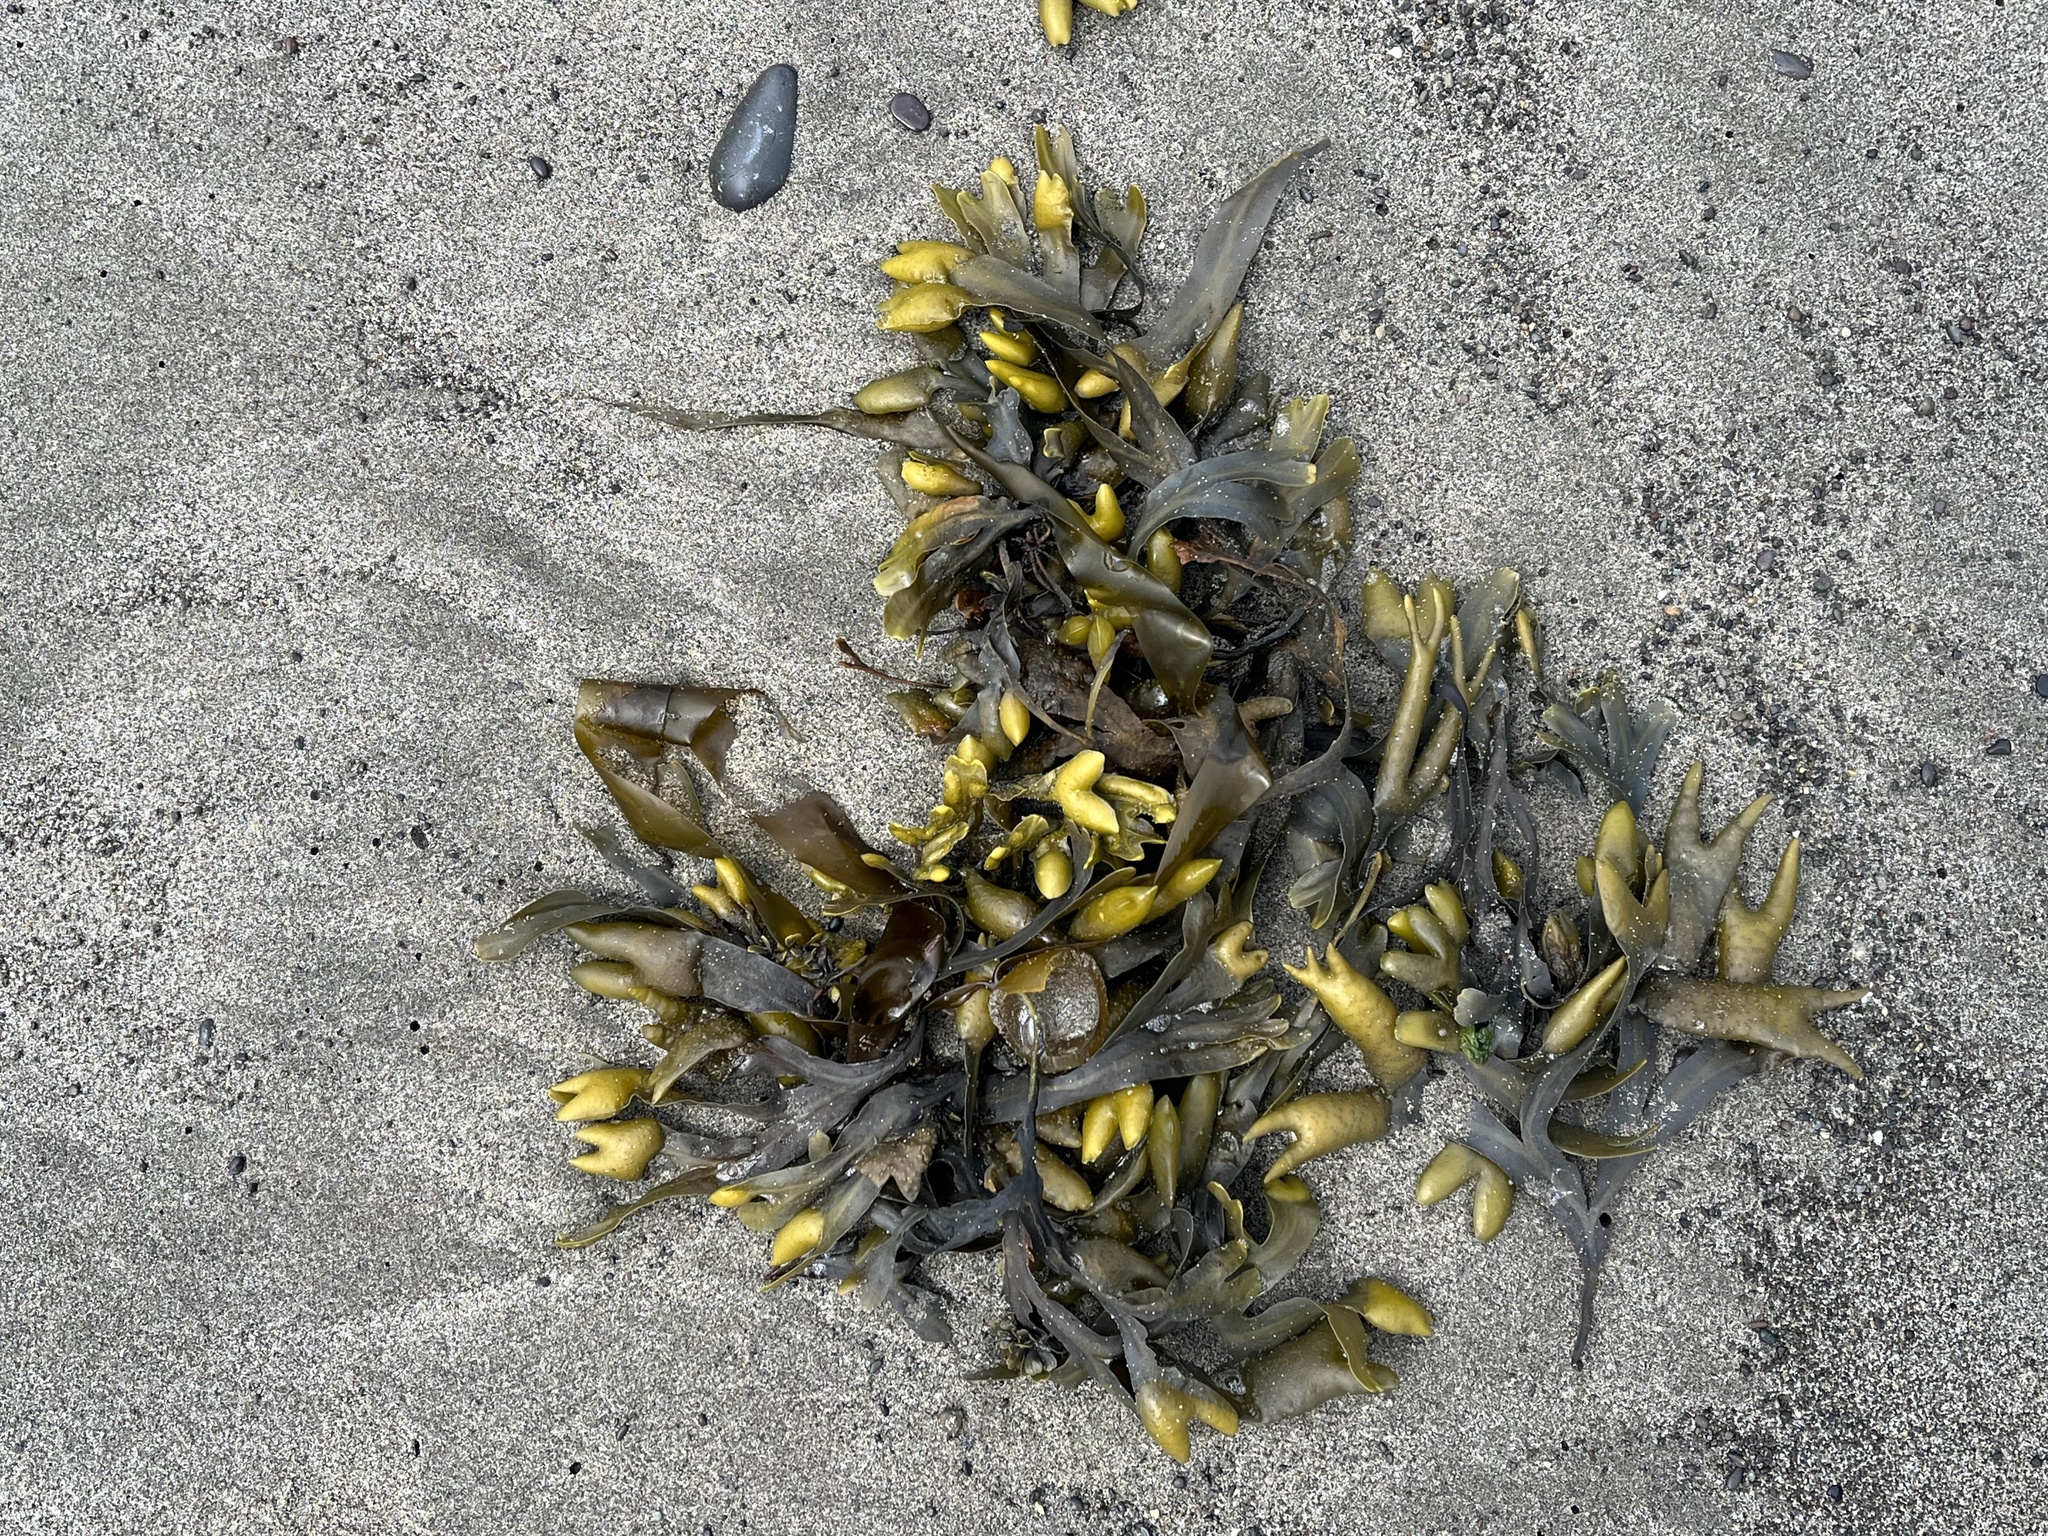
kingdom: Chromista
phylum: Ochrophyta
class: Phaeophyceae
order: Fucales
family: Fucaceae
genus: Fucus
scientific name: Fucus distichus
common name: Rockweed
